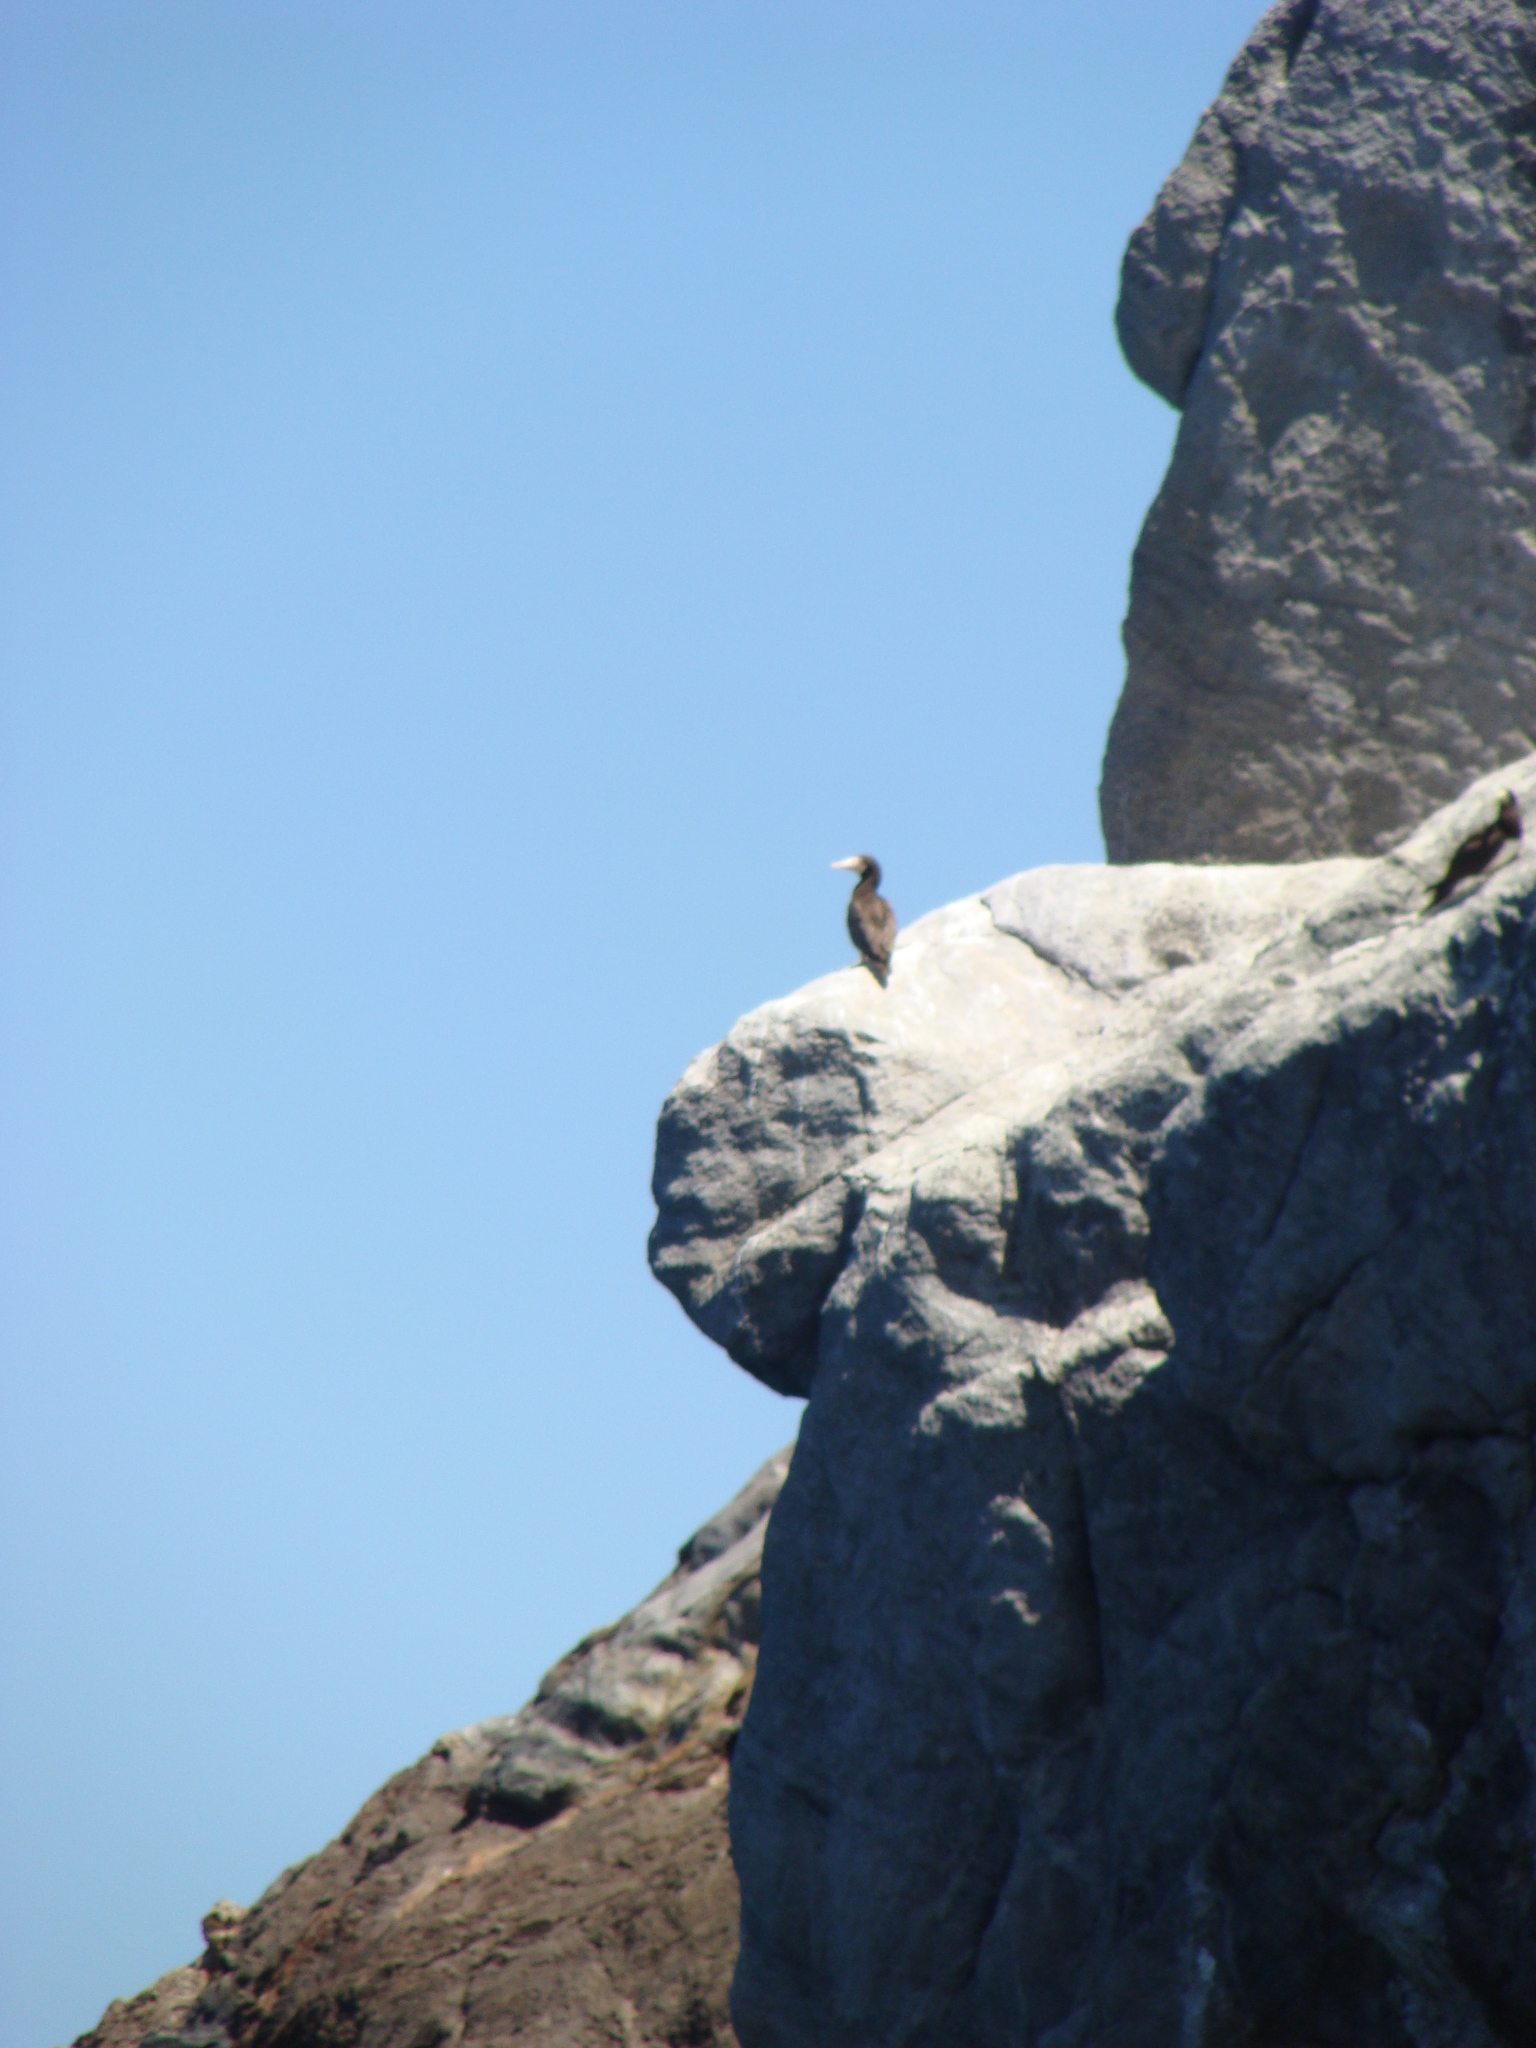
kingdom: Animalia
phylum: Chordata
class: Aves
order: Suliformes
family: Sulidae
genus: Sula
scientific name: Sula leucogaster
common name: Brown booby
